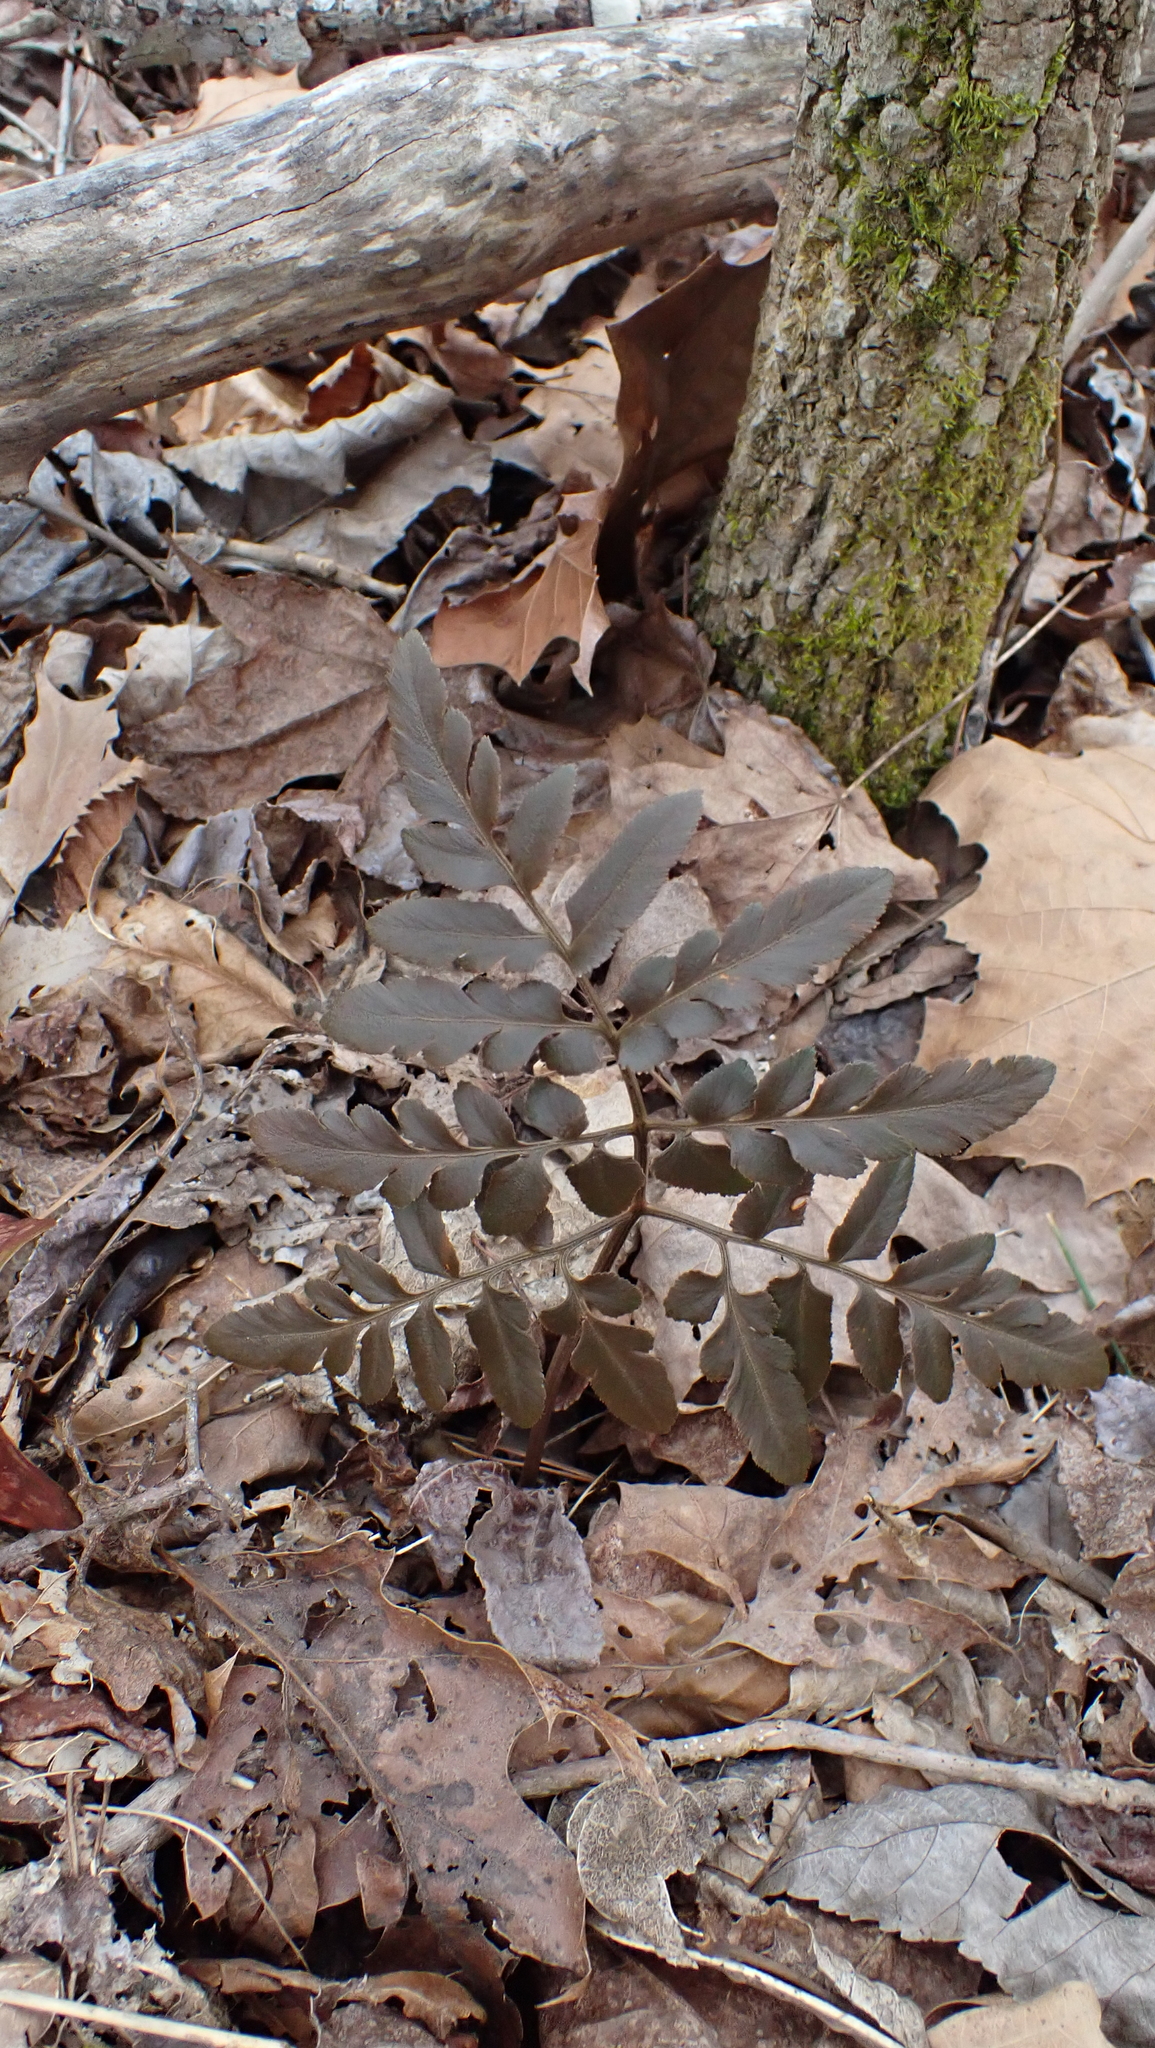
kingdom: Plantae
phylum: Tracheophyta
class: Polypodiopsida
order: Ophioglossales
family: Ophioglossaceae
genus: Sceptridium
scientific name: Sceptridium dissectum
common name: Cut-leaved grapefern
